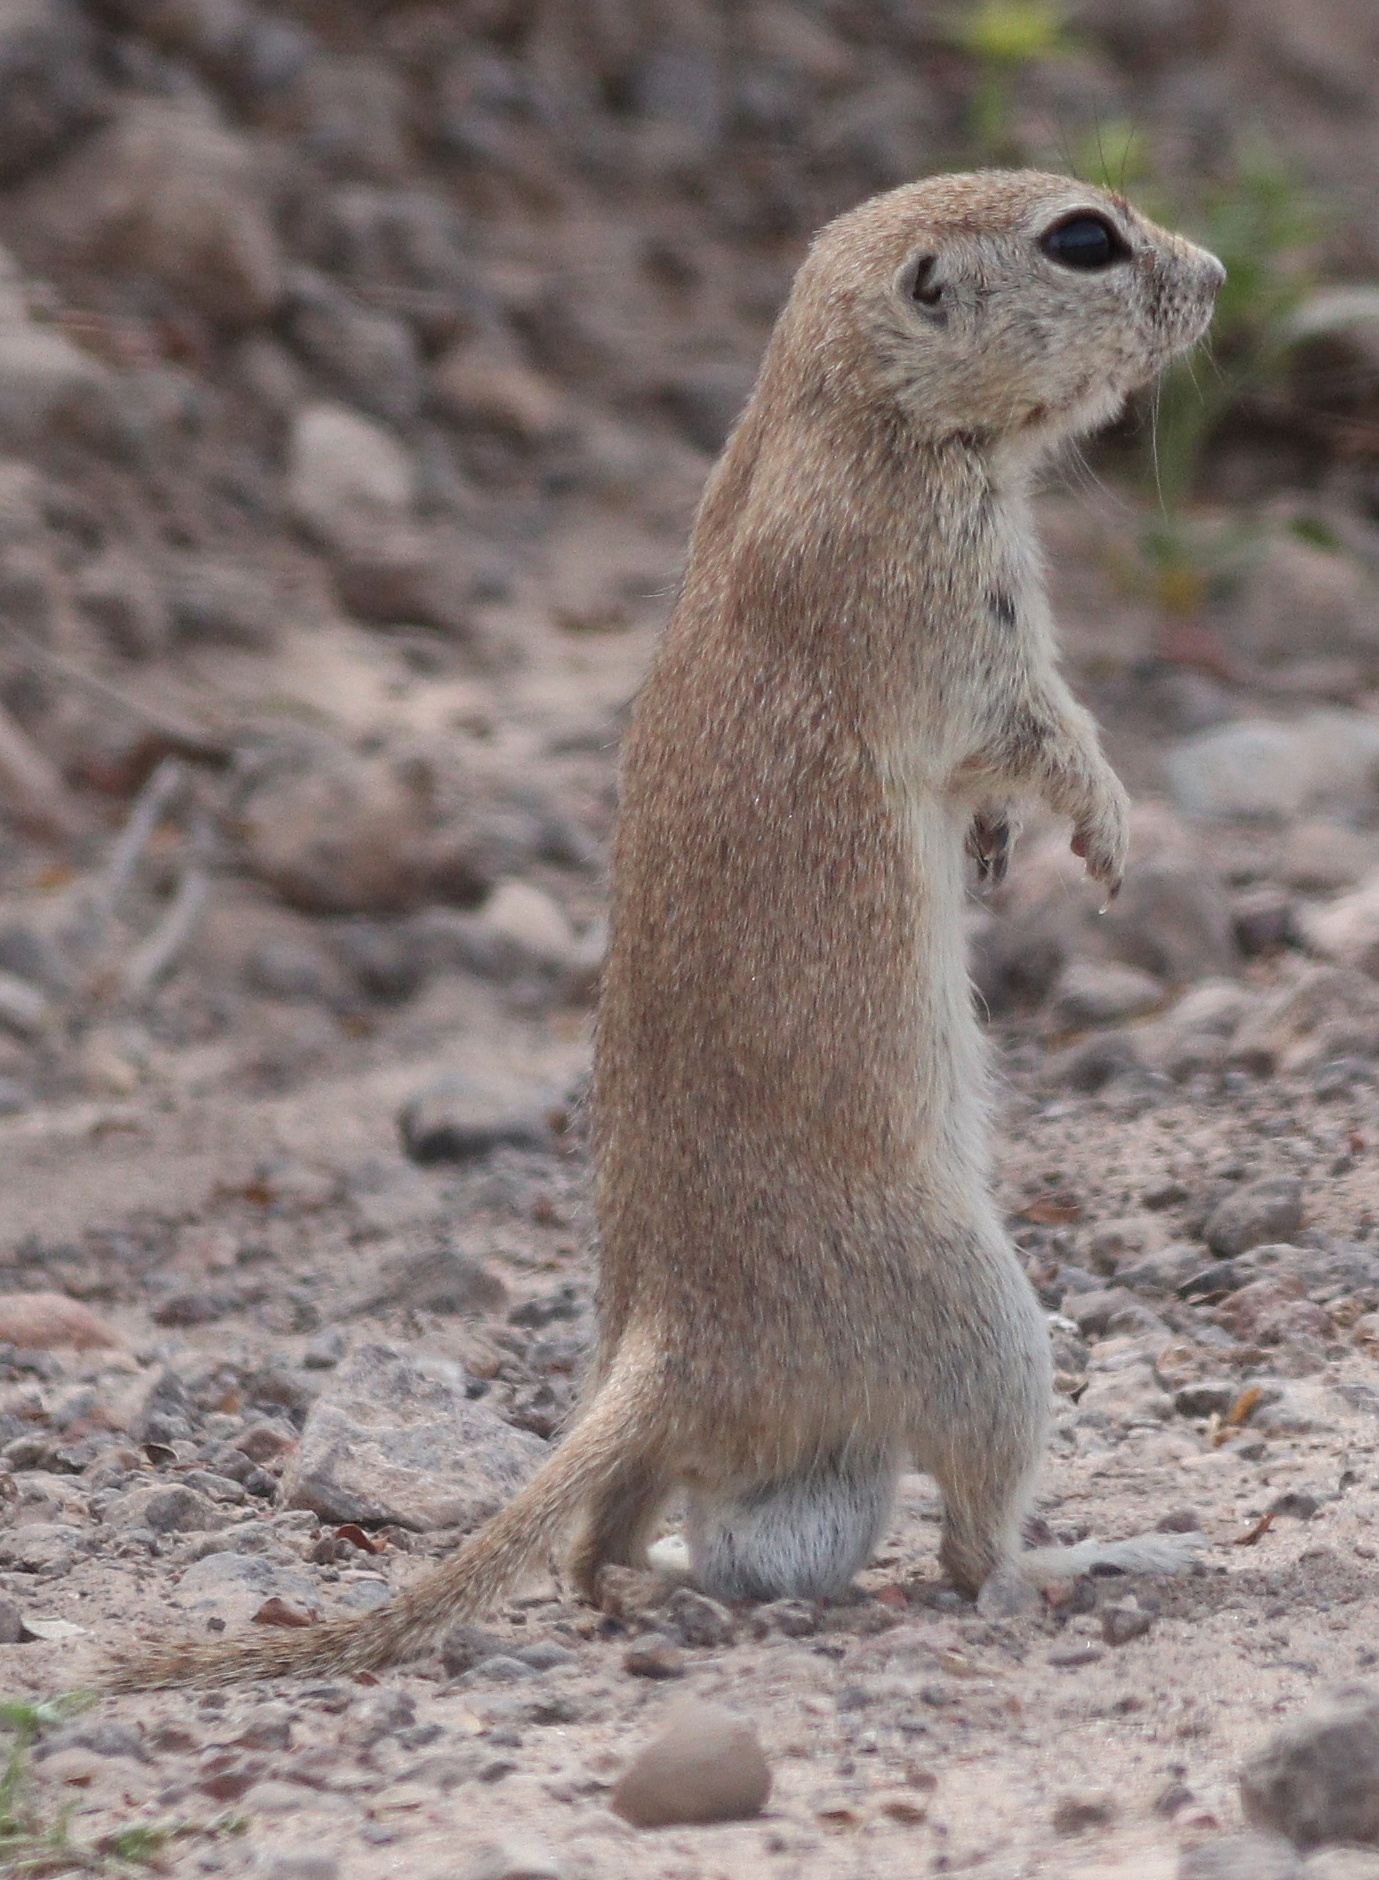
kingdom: Animalia
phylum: Chordata
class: Mammalia
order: Rodentia
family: Sciuridae
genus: Xerospermophilus
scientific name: Xerospermophilus tereticaudus
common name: Round-tailed ground squirrel
